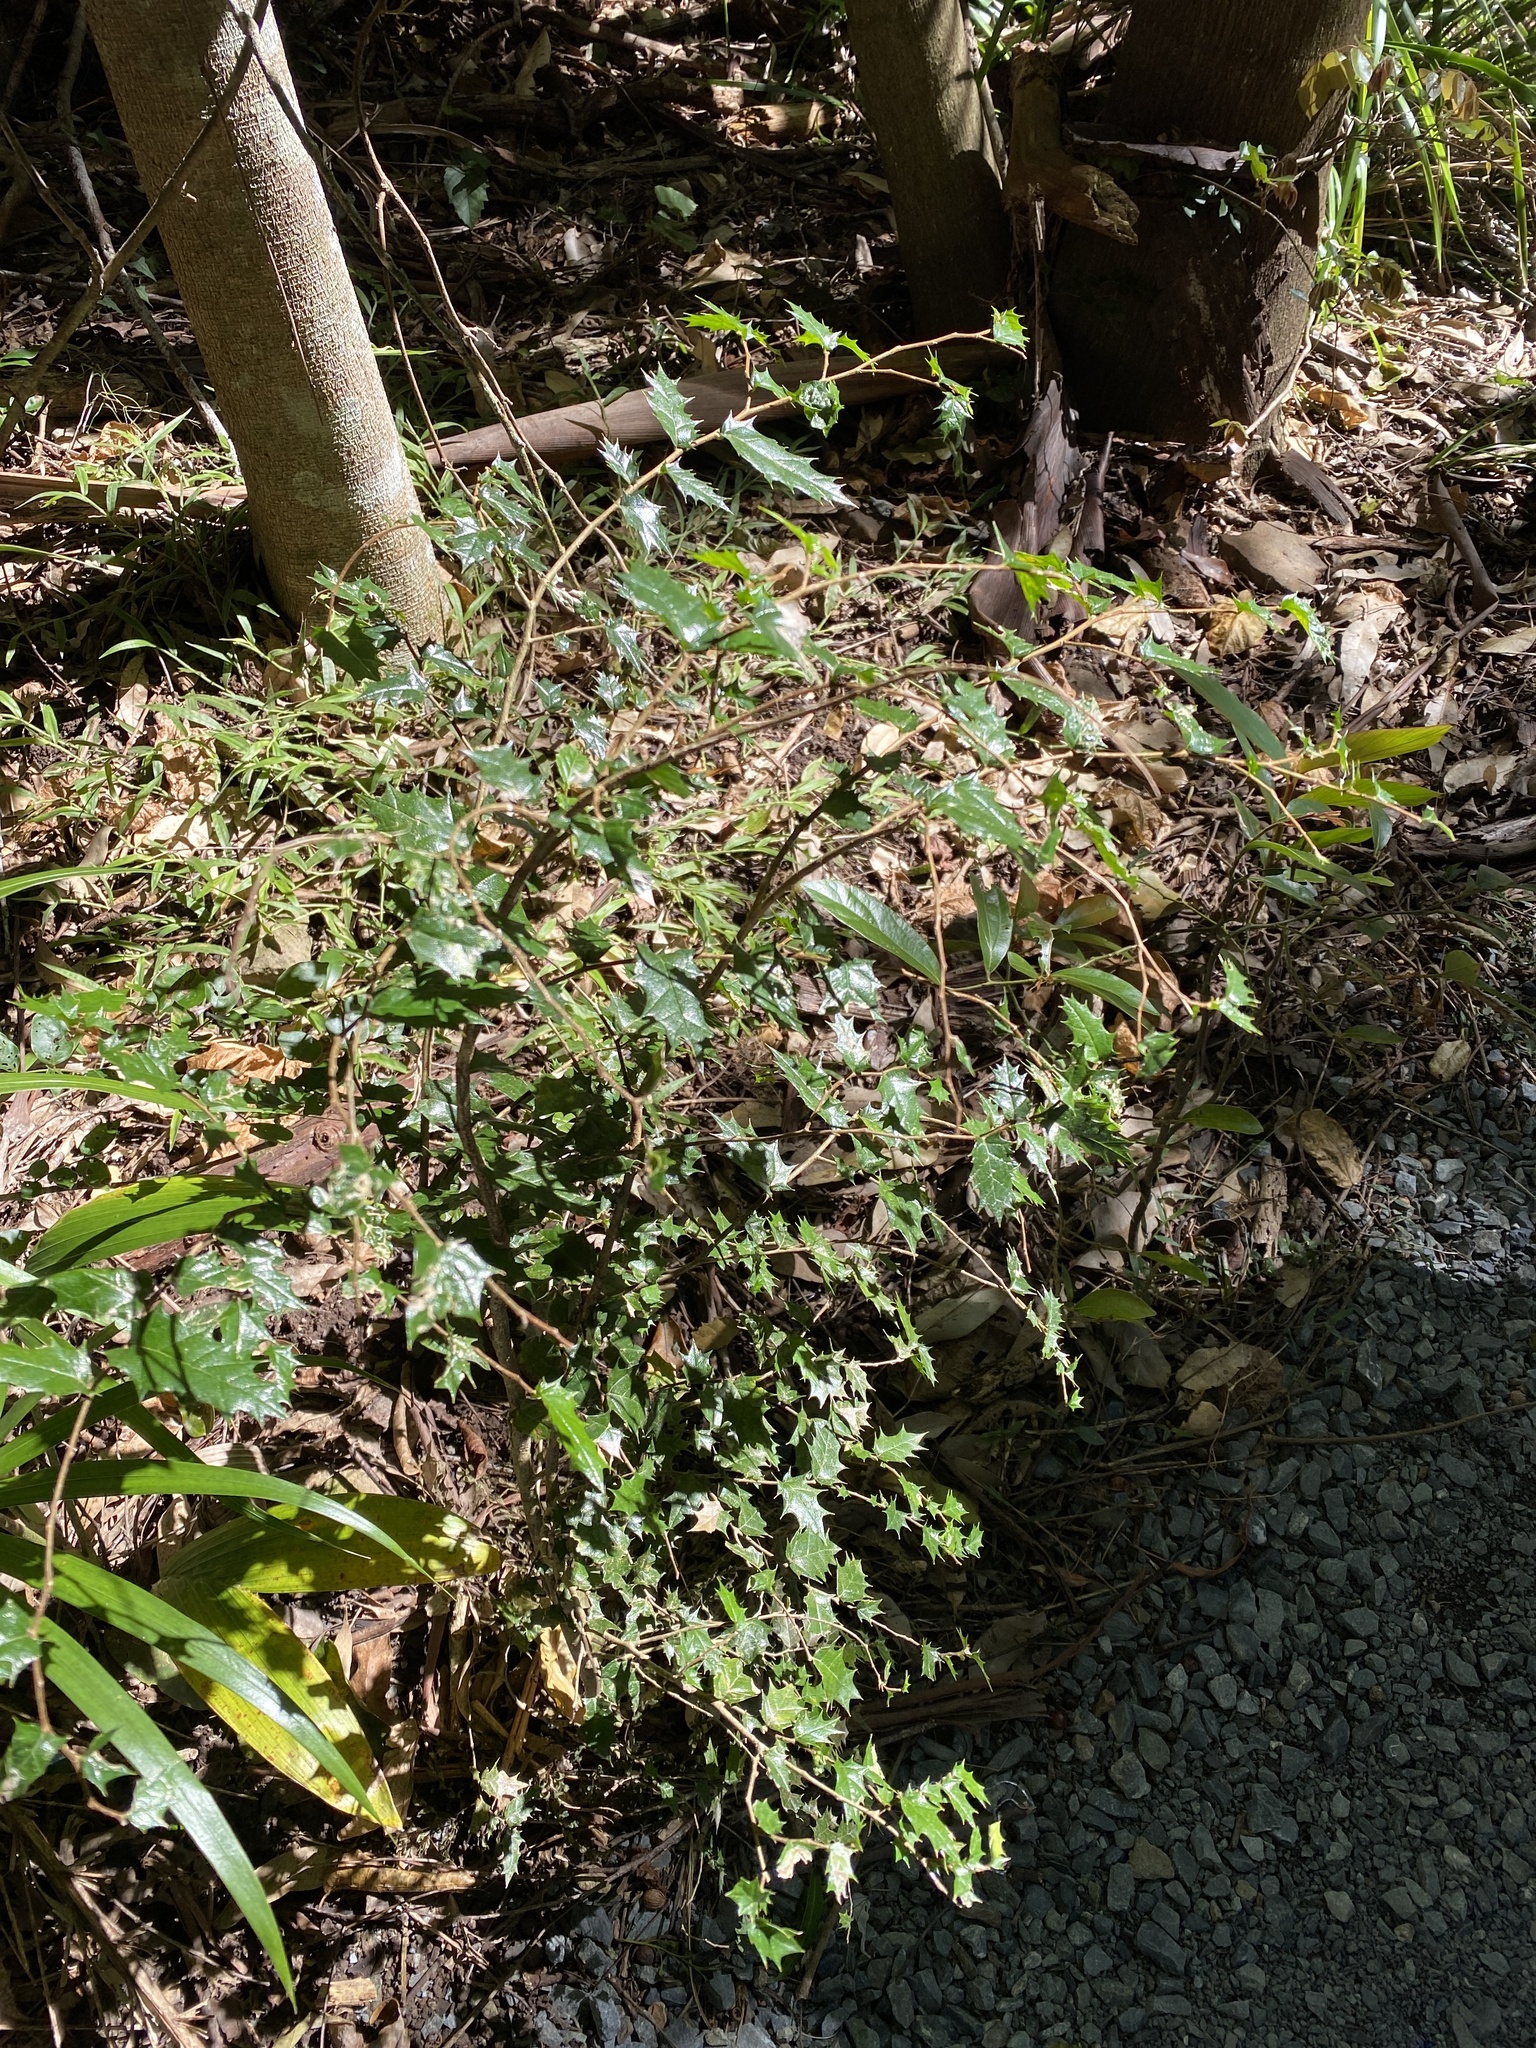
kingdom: Plantae
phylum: Tracheophyta
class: Magnoliopsida
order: Rosales
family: Cannabaceae
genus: Aphananthe
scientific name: Aphananthe philippinensis
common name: Wild holly
